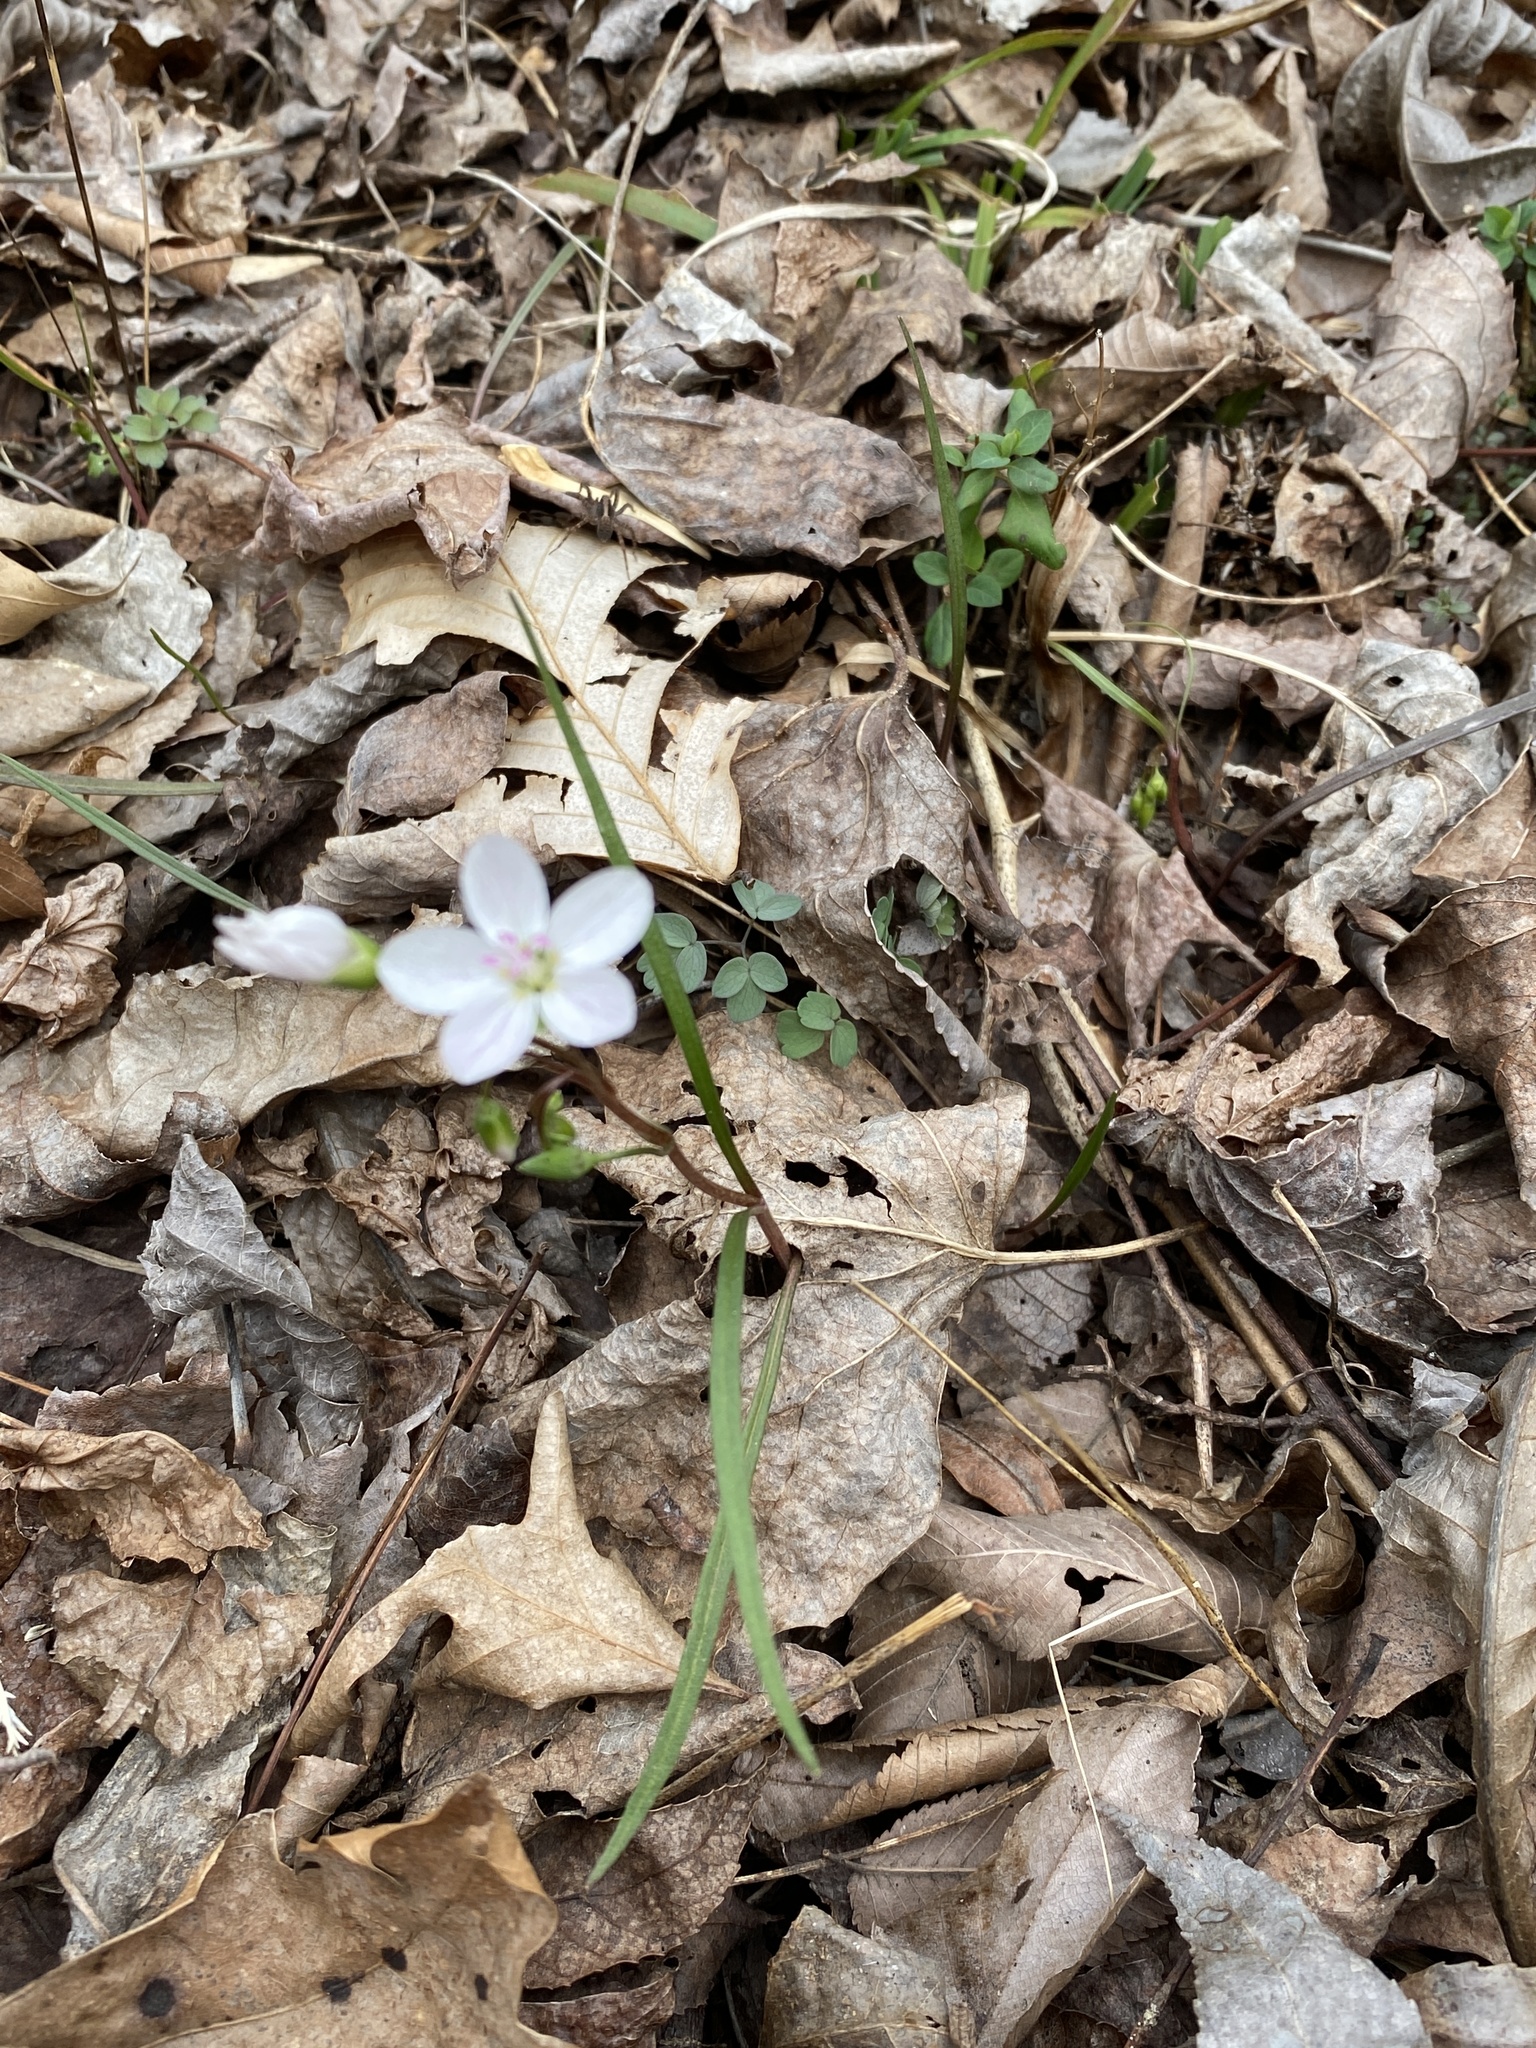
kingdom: Plantae
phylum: Tracheophyta
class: Magnoliopsida
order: Caryophyllales
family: Montiaceae
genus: Claytonia
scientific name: Claytonia virginica
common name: Virginia springbeauty
